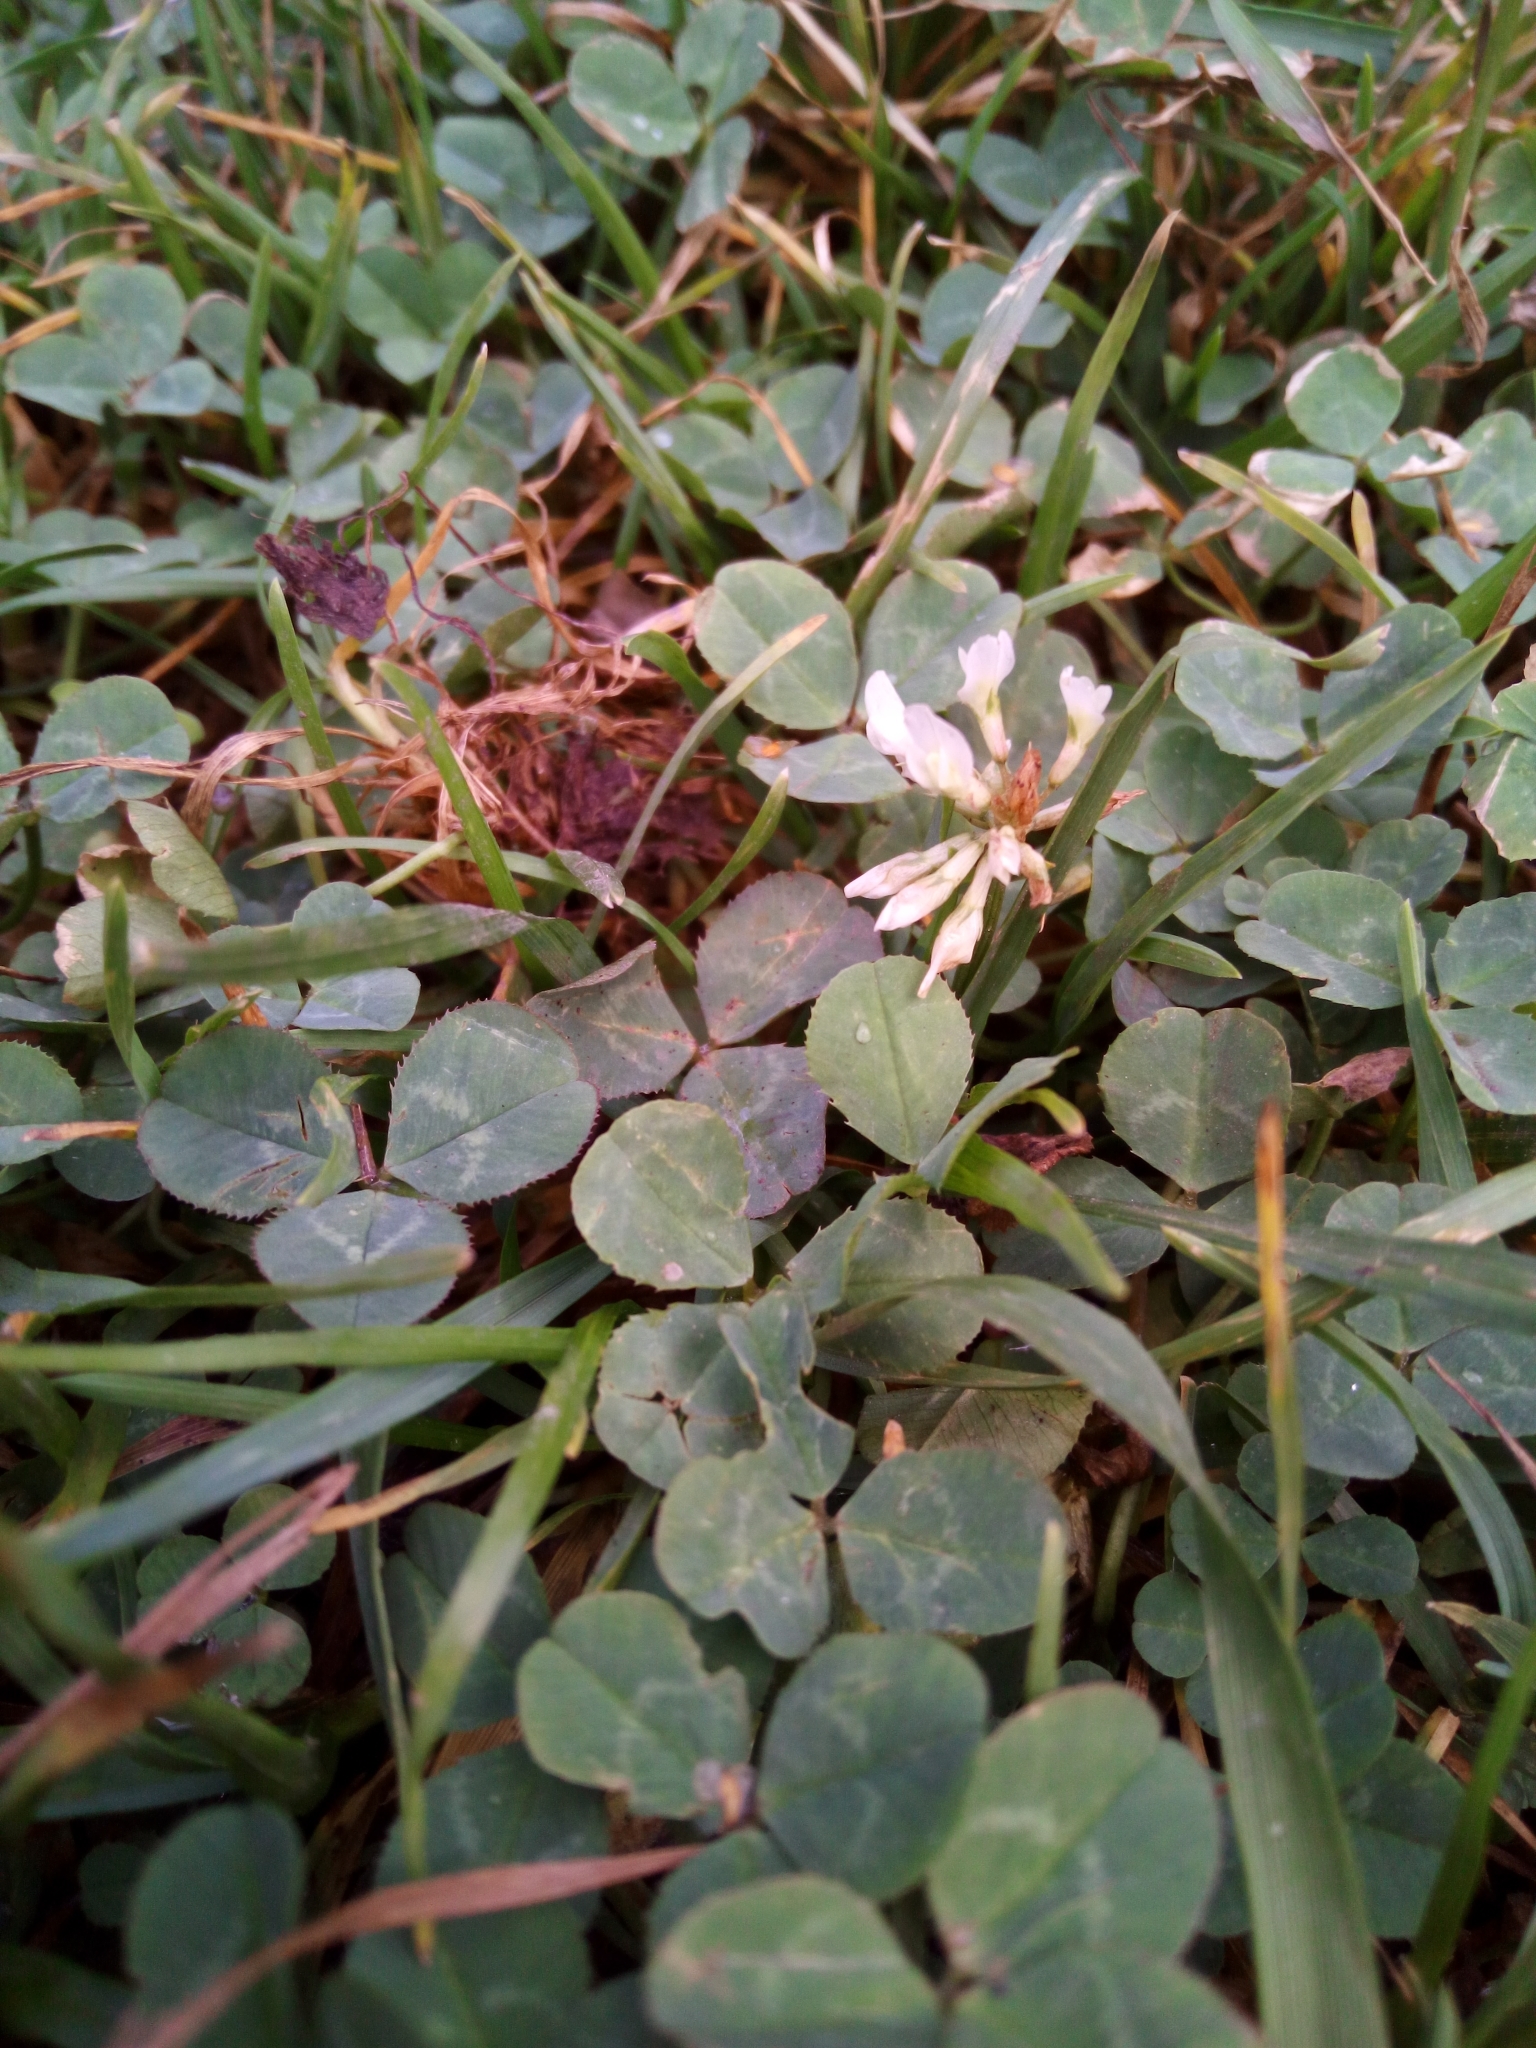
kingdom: Plantae
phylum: Tracheophyta
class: Magnoliopsida
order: Fabales
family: Fabaceae
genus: Trifolium
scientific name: Trifolium repens
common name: White clover
